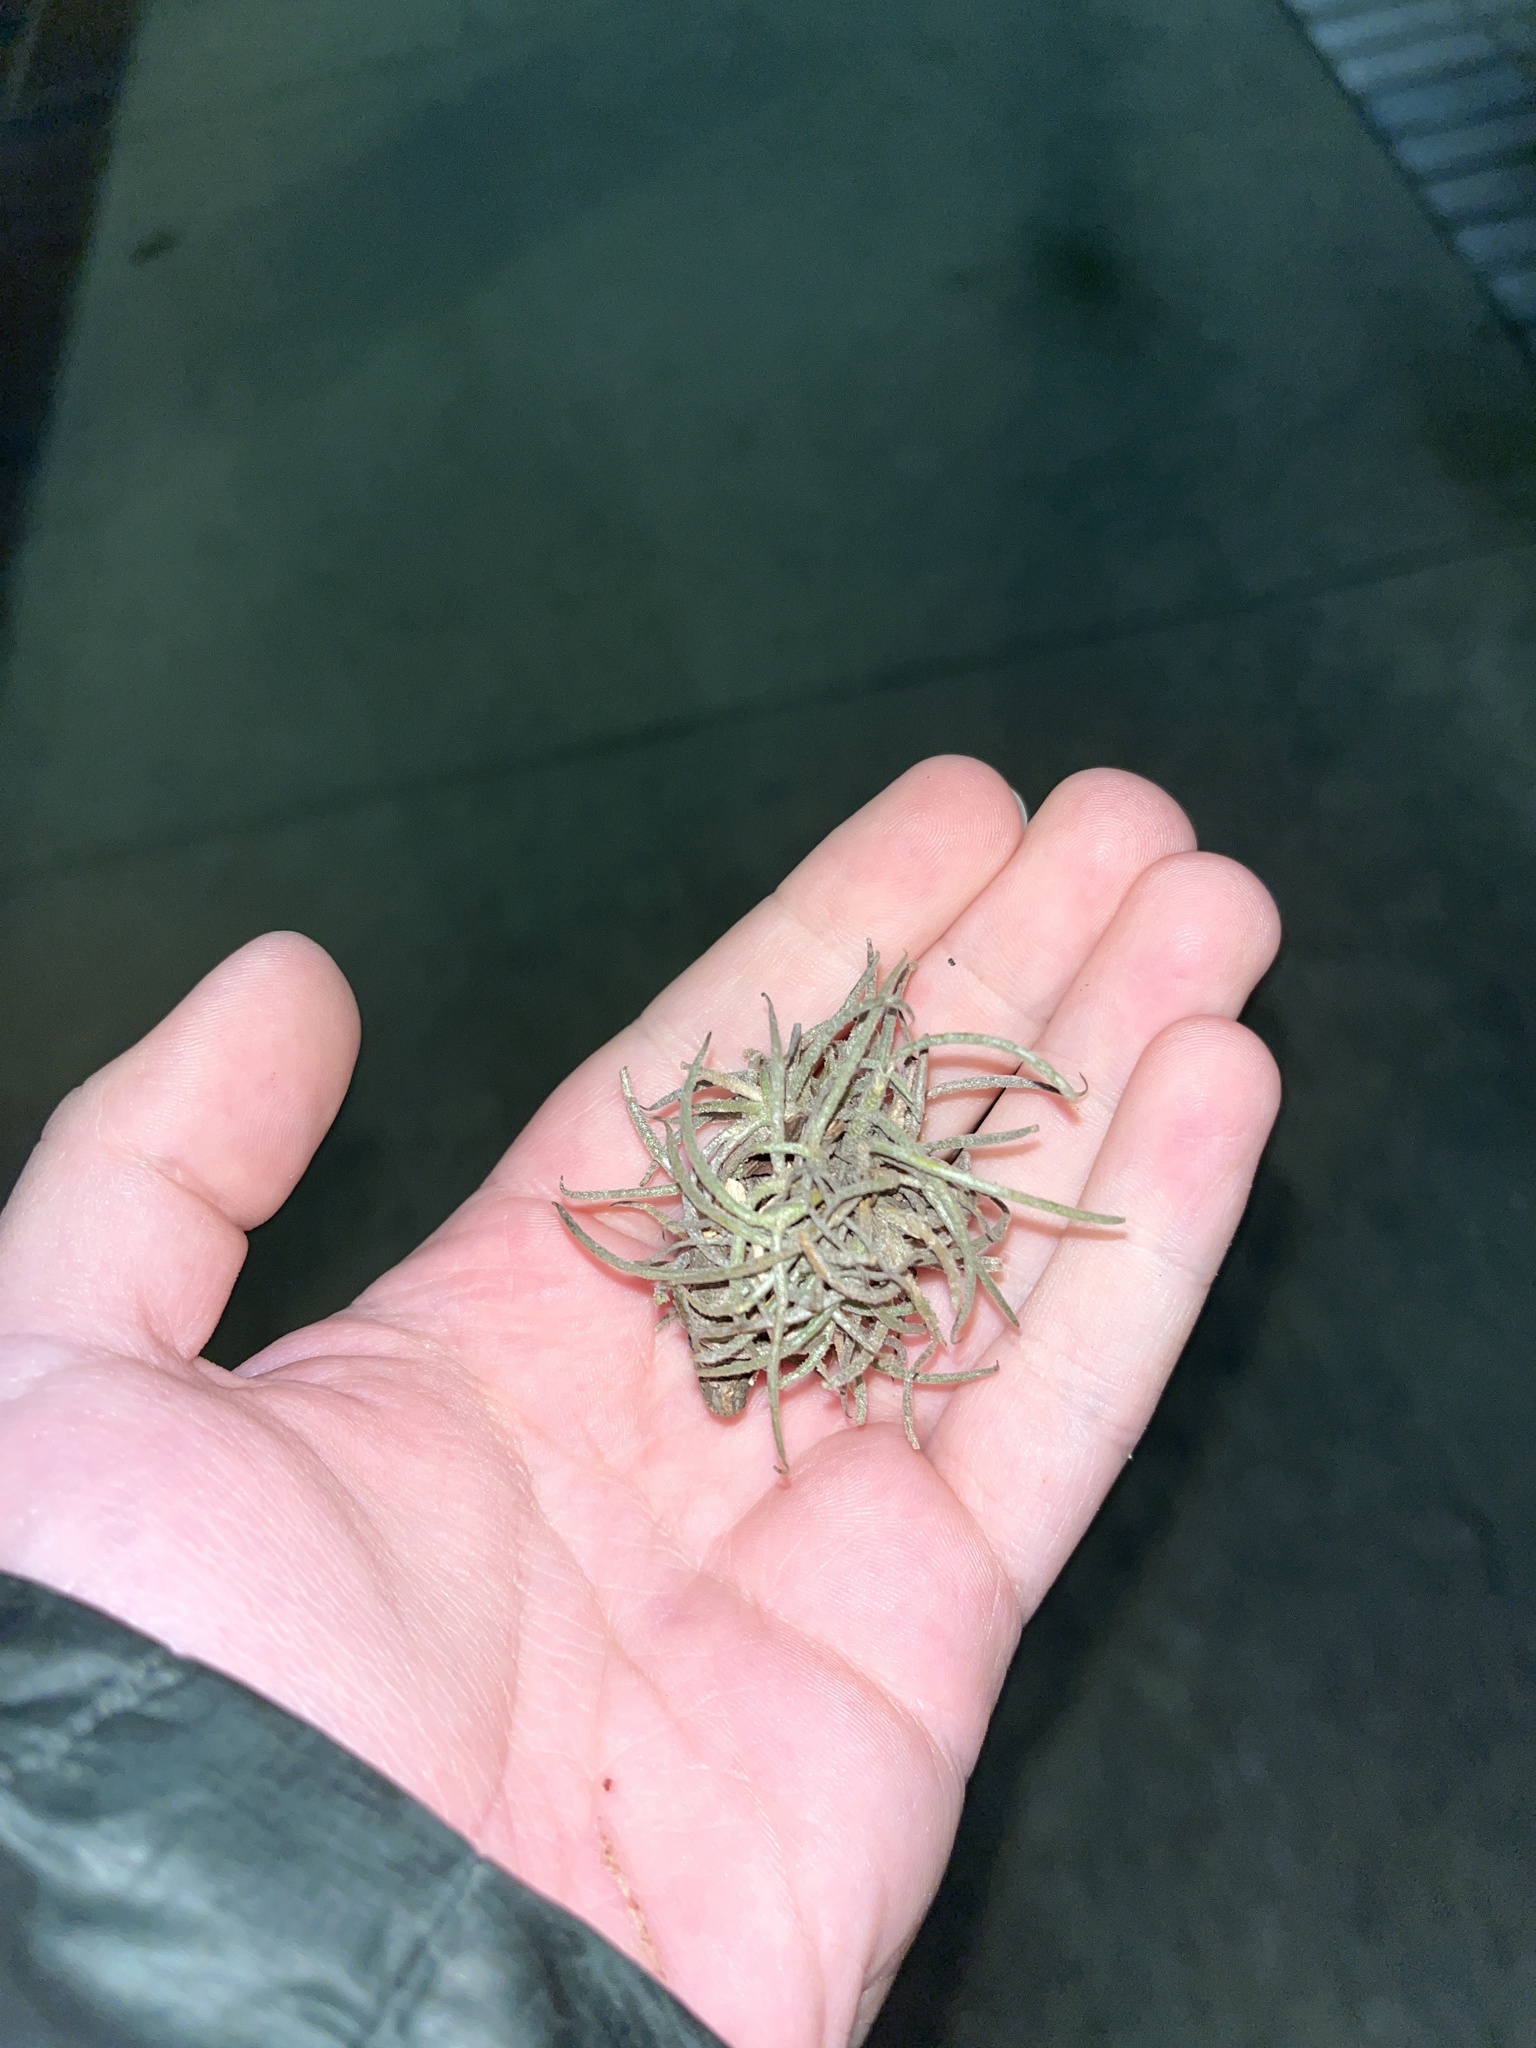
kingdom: Plantae
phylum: Tracheophyta
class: Liliopsida
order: Poales
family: Bromeliaceae
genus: Tillandsia
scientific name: Tillandsia recurvata
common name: Small ballmoss
